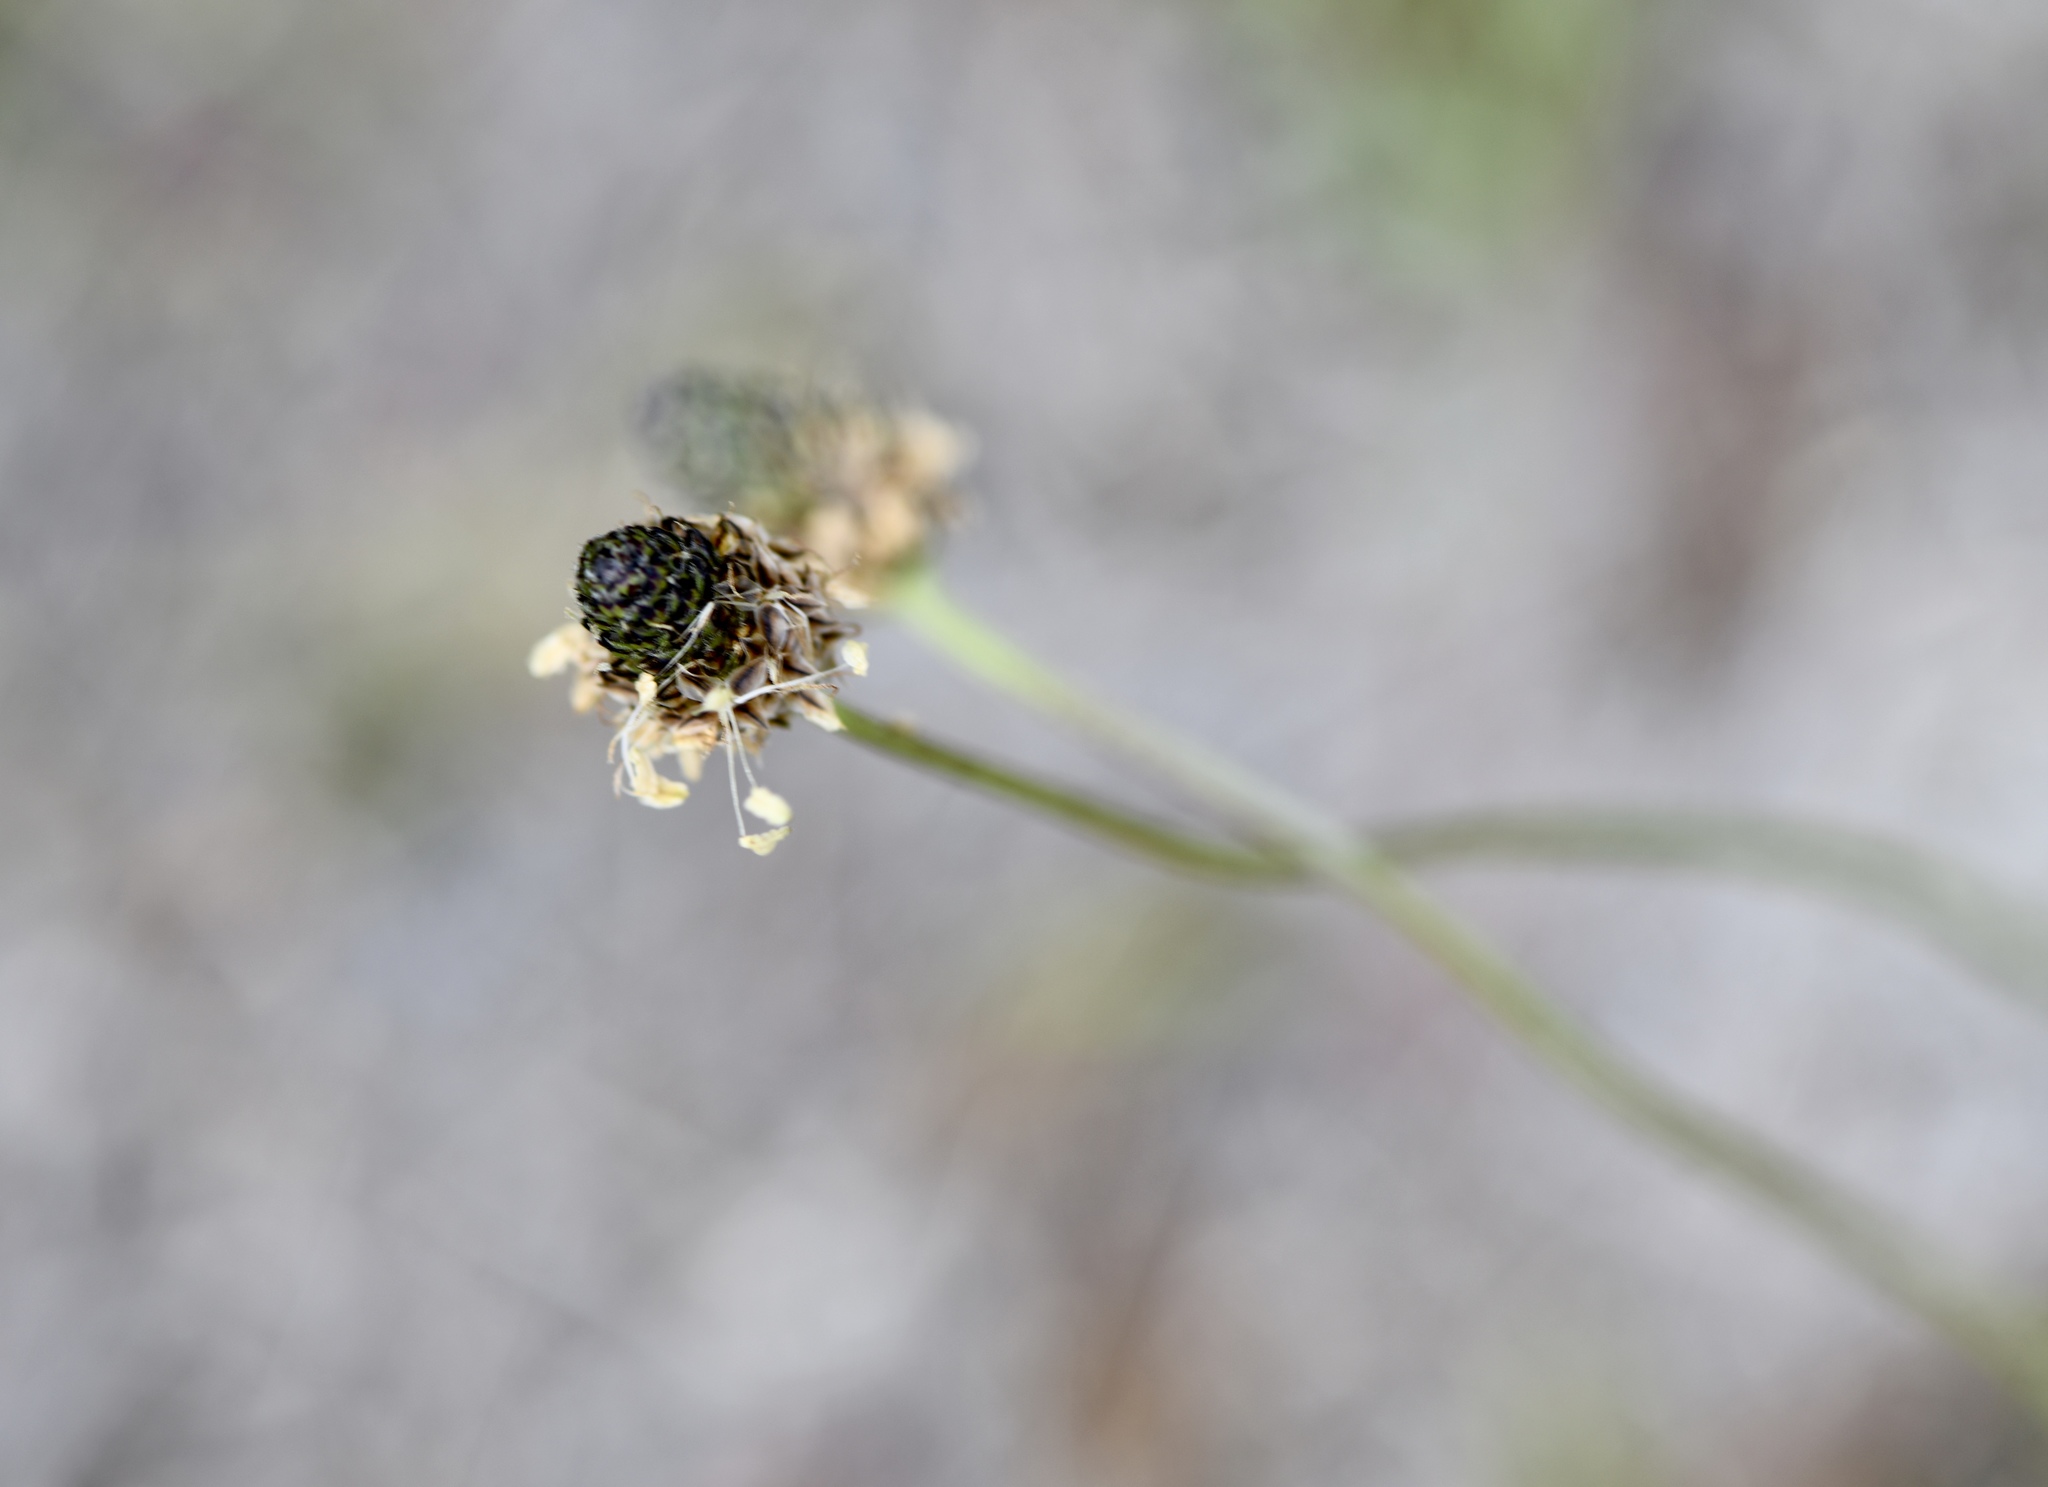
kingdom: Plantae
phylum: Tracheophyta
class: Magnoliopsida
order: Lamiales
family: Plantaginaceae
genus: Plantago
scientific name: Plantago lanceolata
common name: Ribwort plantain
